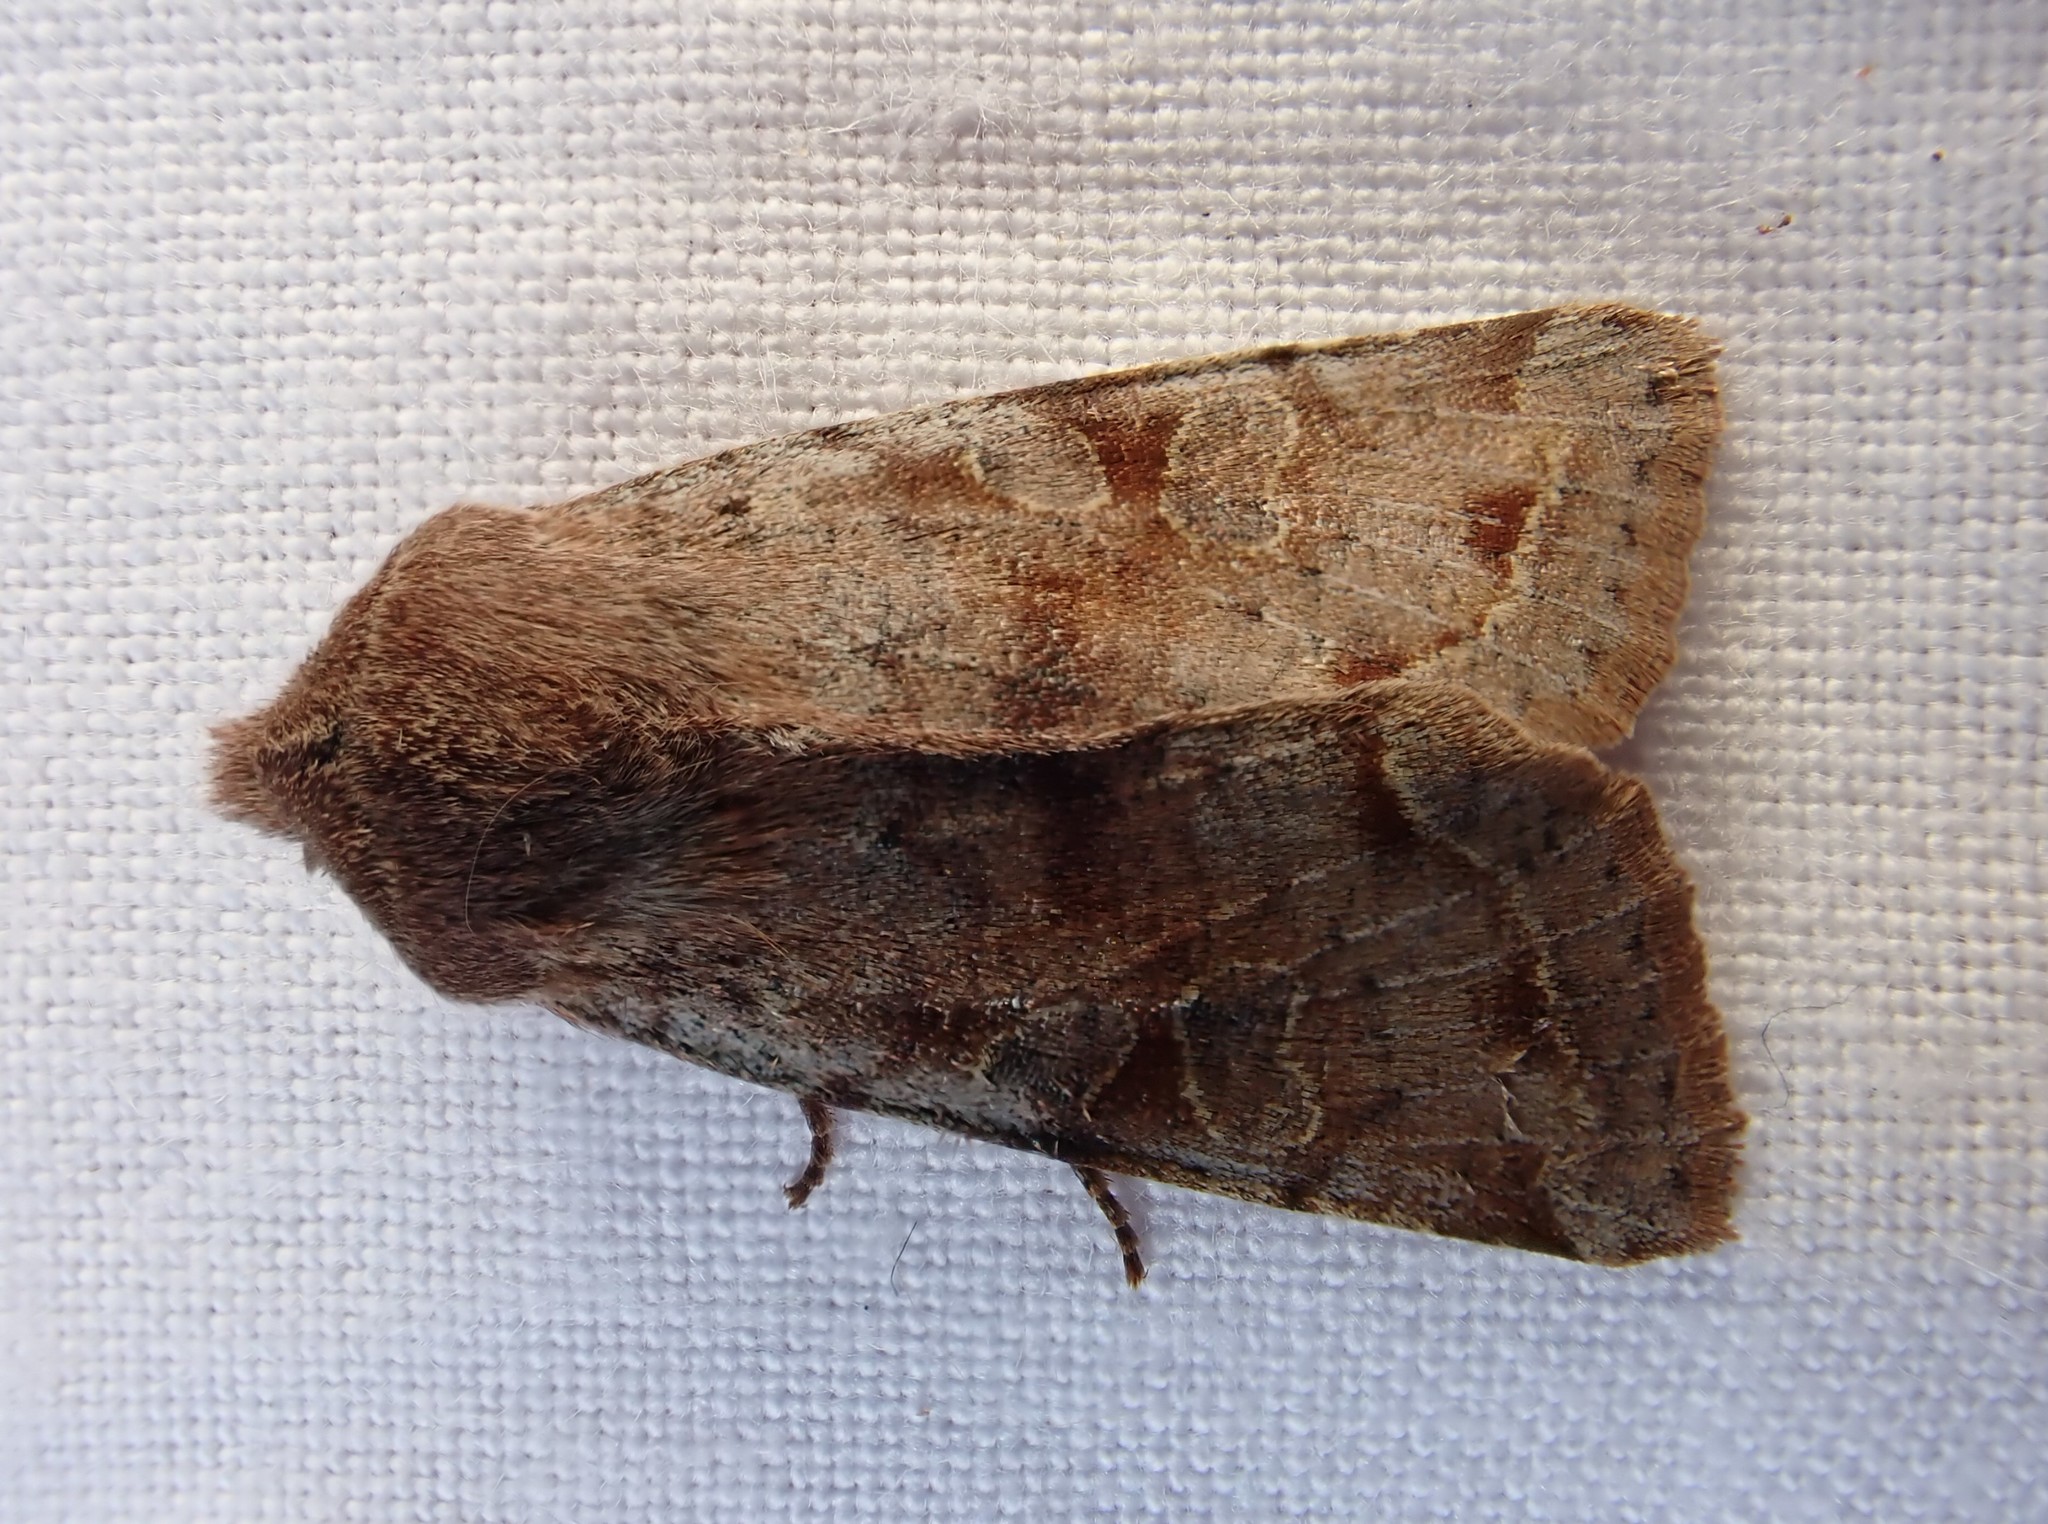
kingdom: Animalia
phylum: Arthropoda
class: Insecta
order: Lepidoptera
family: Noctuidae
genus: Orthosia
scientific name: Orthosia incerta
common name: Clouded drab
